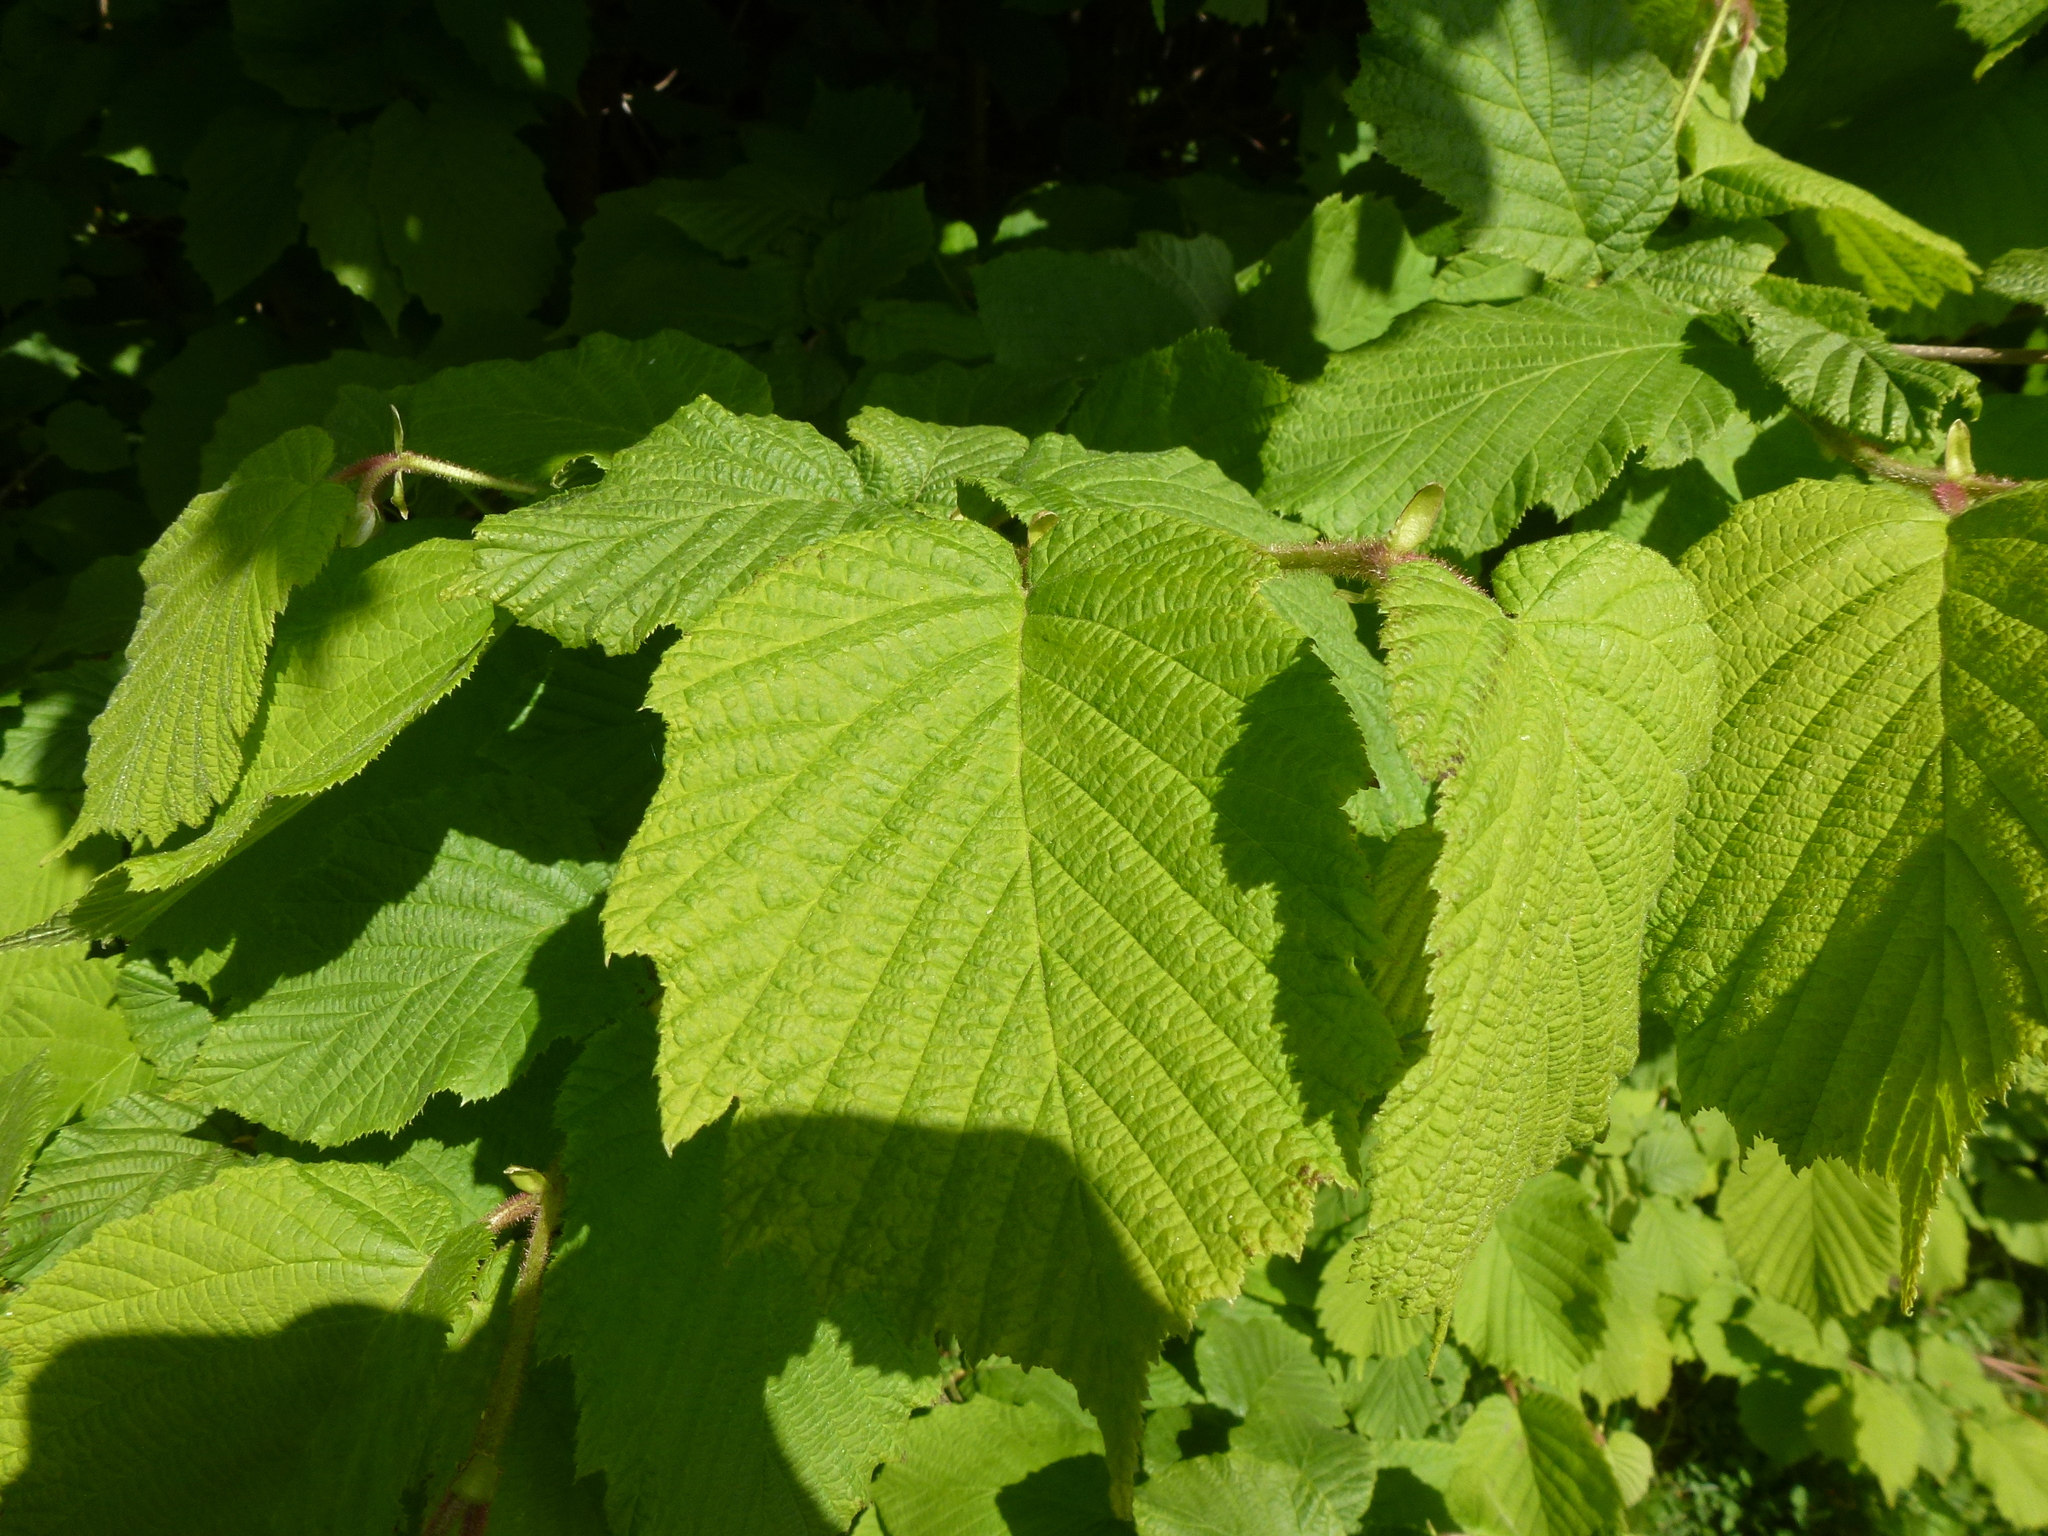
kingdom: Plantae
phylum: Tracheophyta
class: Magnoliopsida
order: Fagales
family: Betulaceae
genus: Corylus
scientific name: Corylus avellana
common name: European hazel
